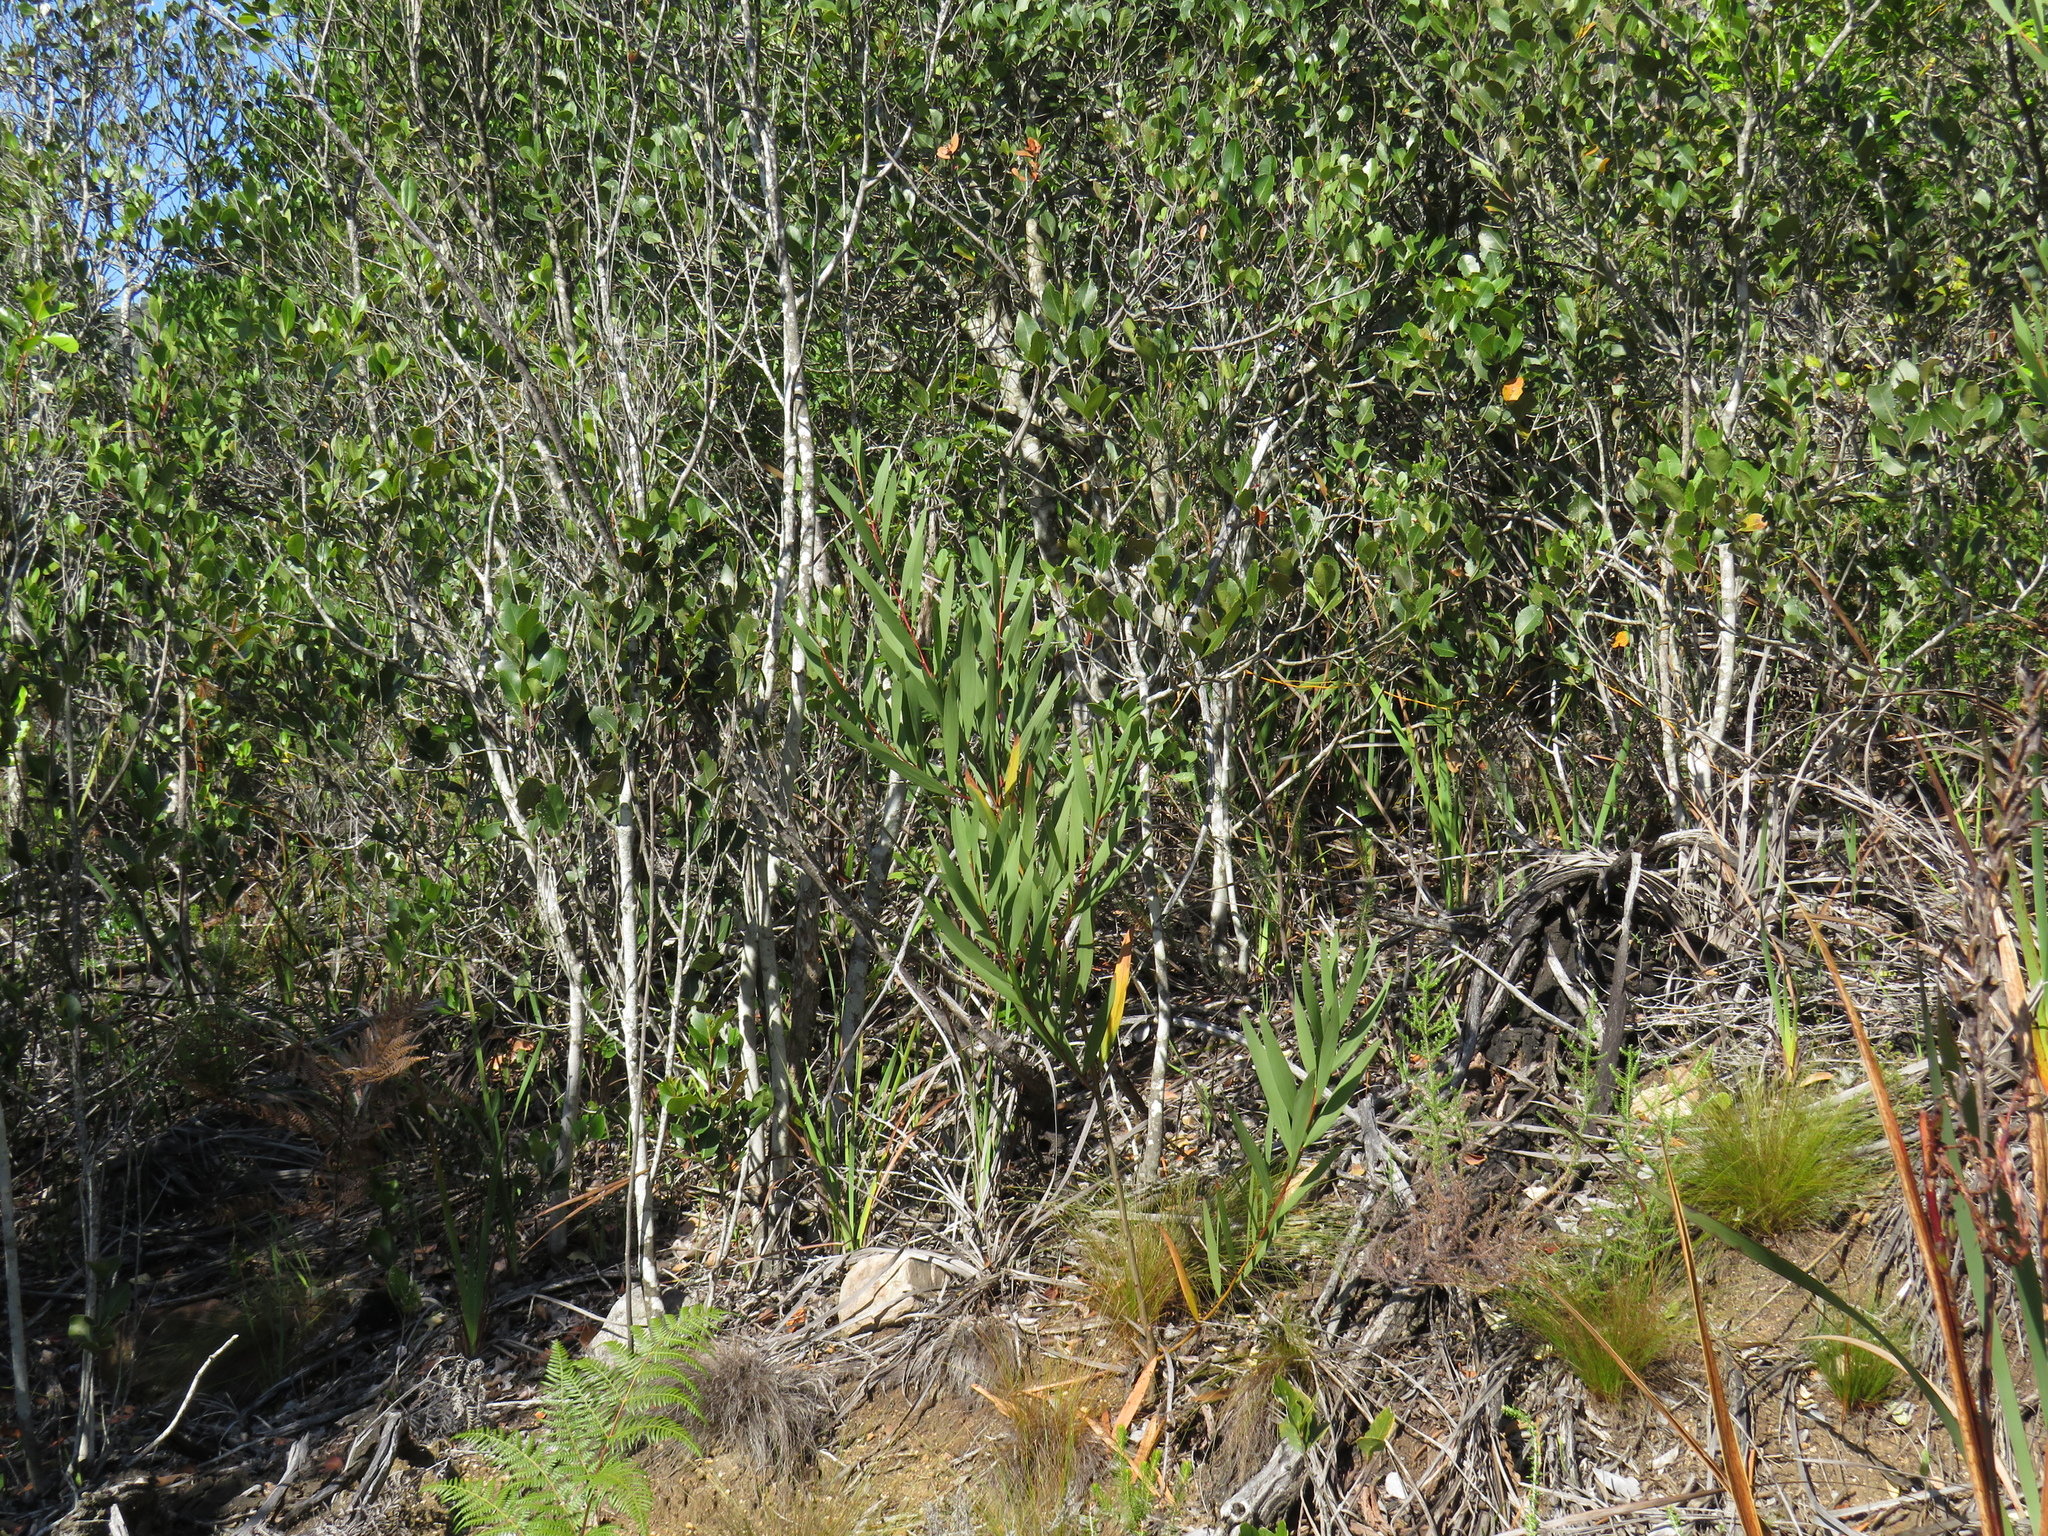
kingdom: Plantae
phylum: Tracheophyta
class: Magnoliopsida
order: Fabales
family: Fabaceae
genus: Acacia
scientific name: Acacia longifolia
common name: Sydney golden wattle
